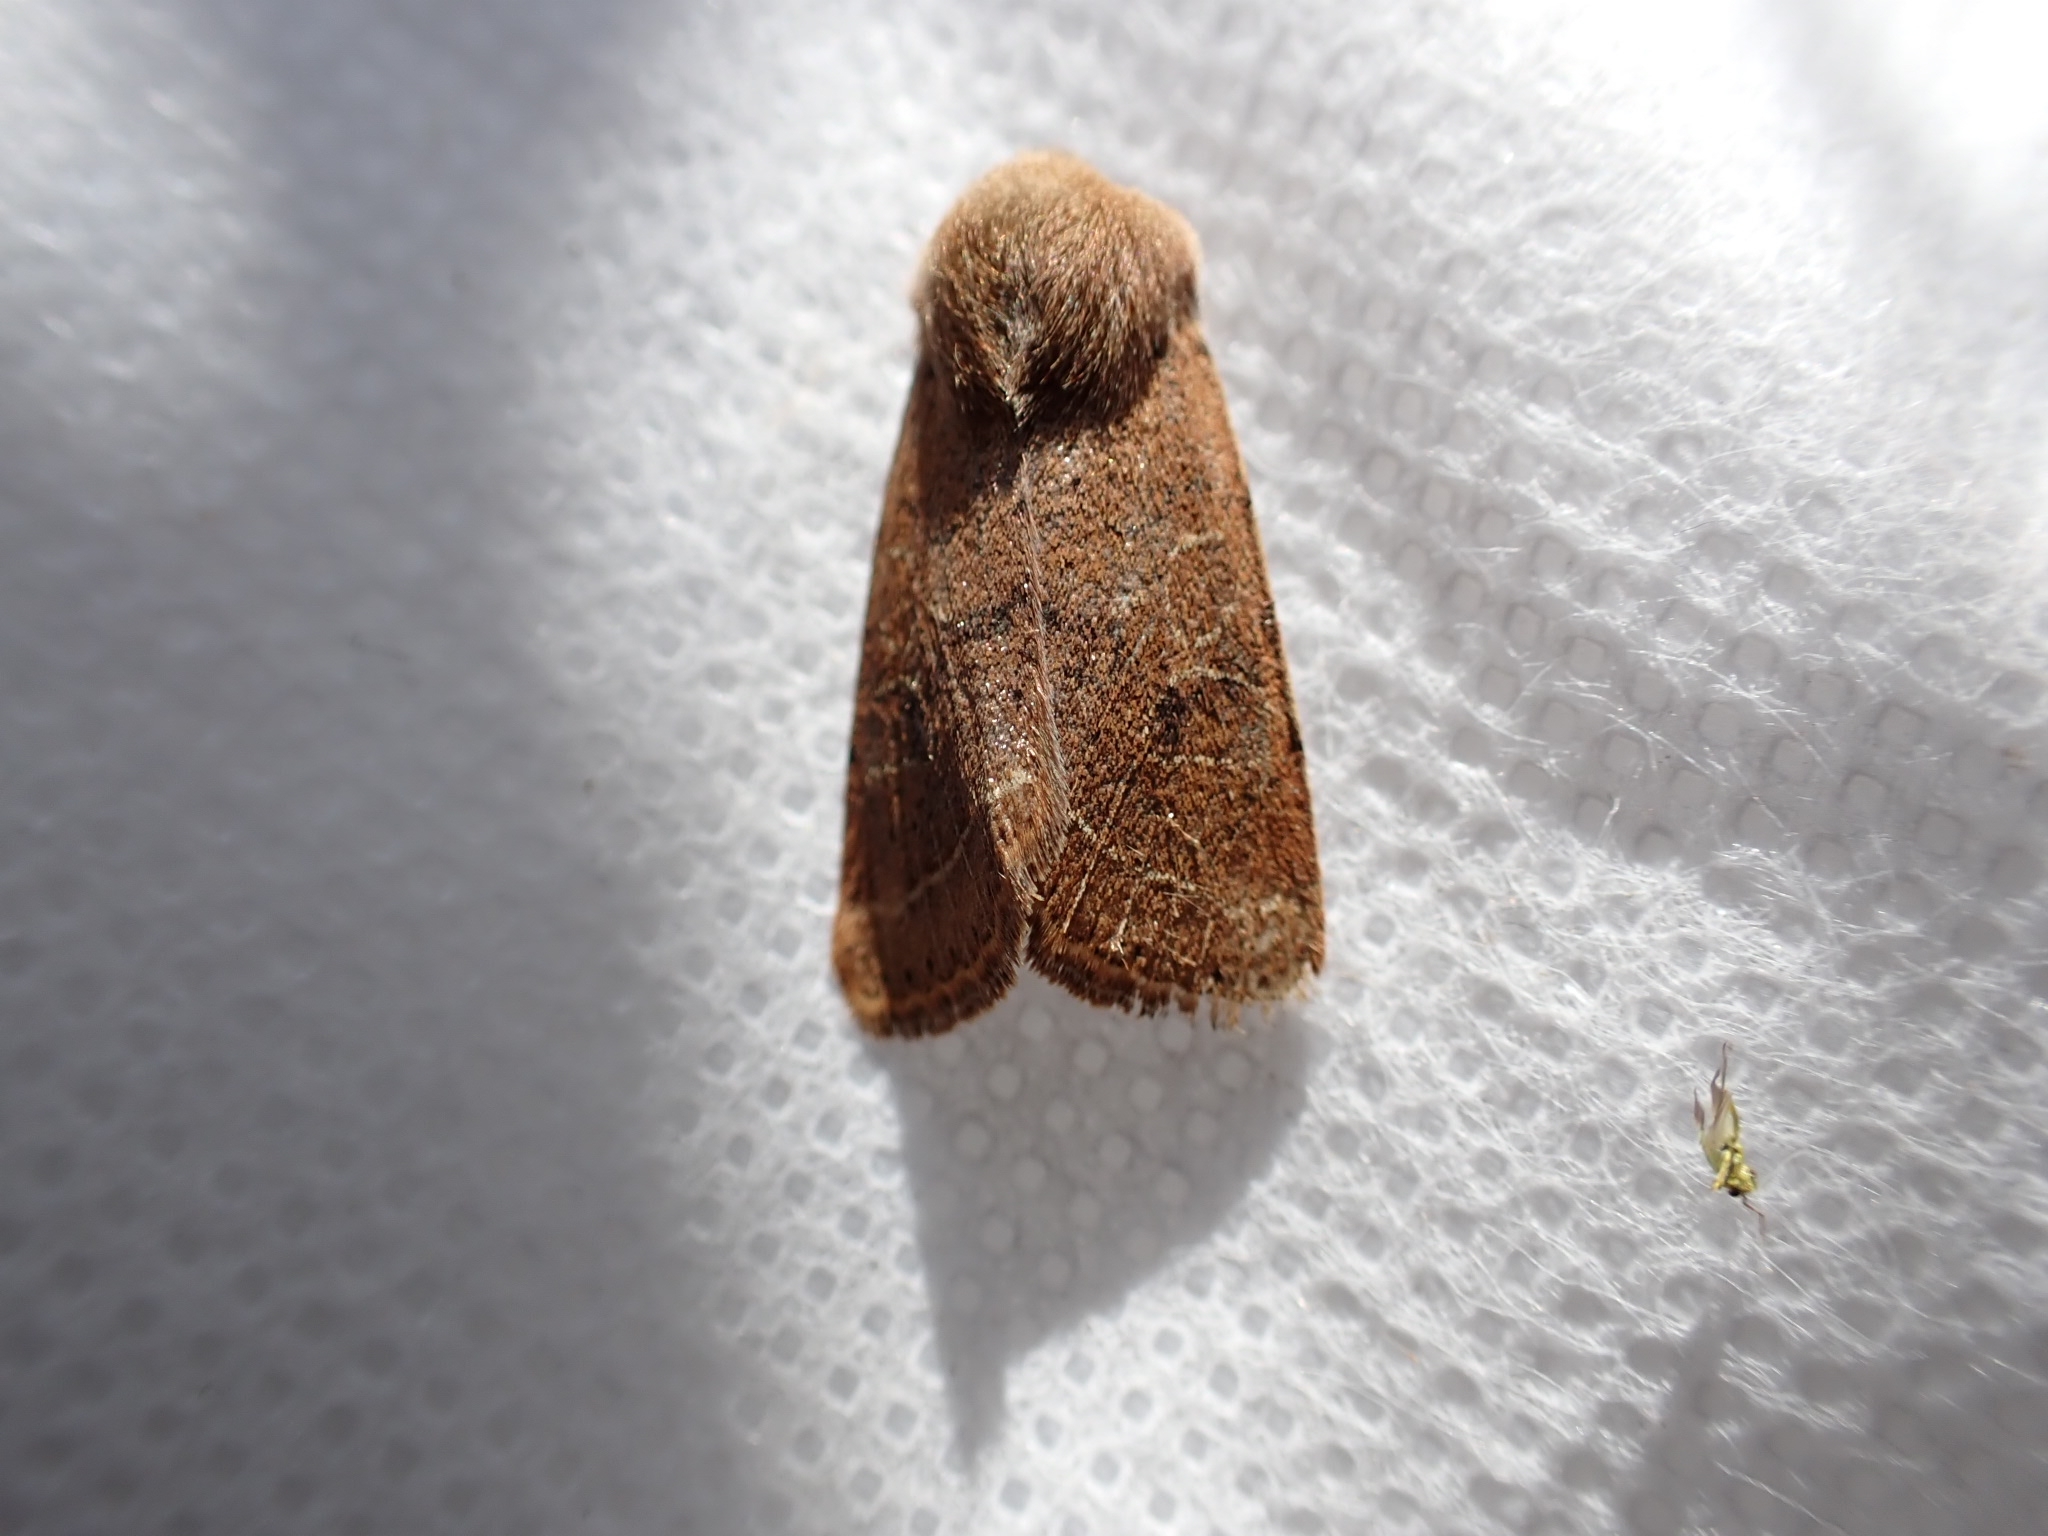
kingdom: Animalia
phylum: Arthropoda
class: Insecta
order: Lepidoptera
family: Noctuidae
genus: Orthosia
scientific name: Orthosia cerasi
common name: Common quaker
